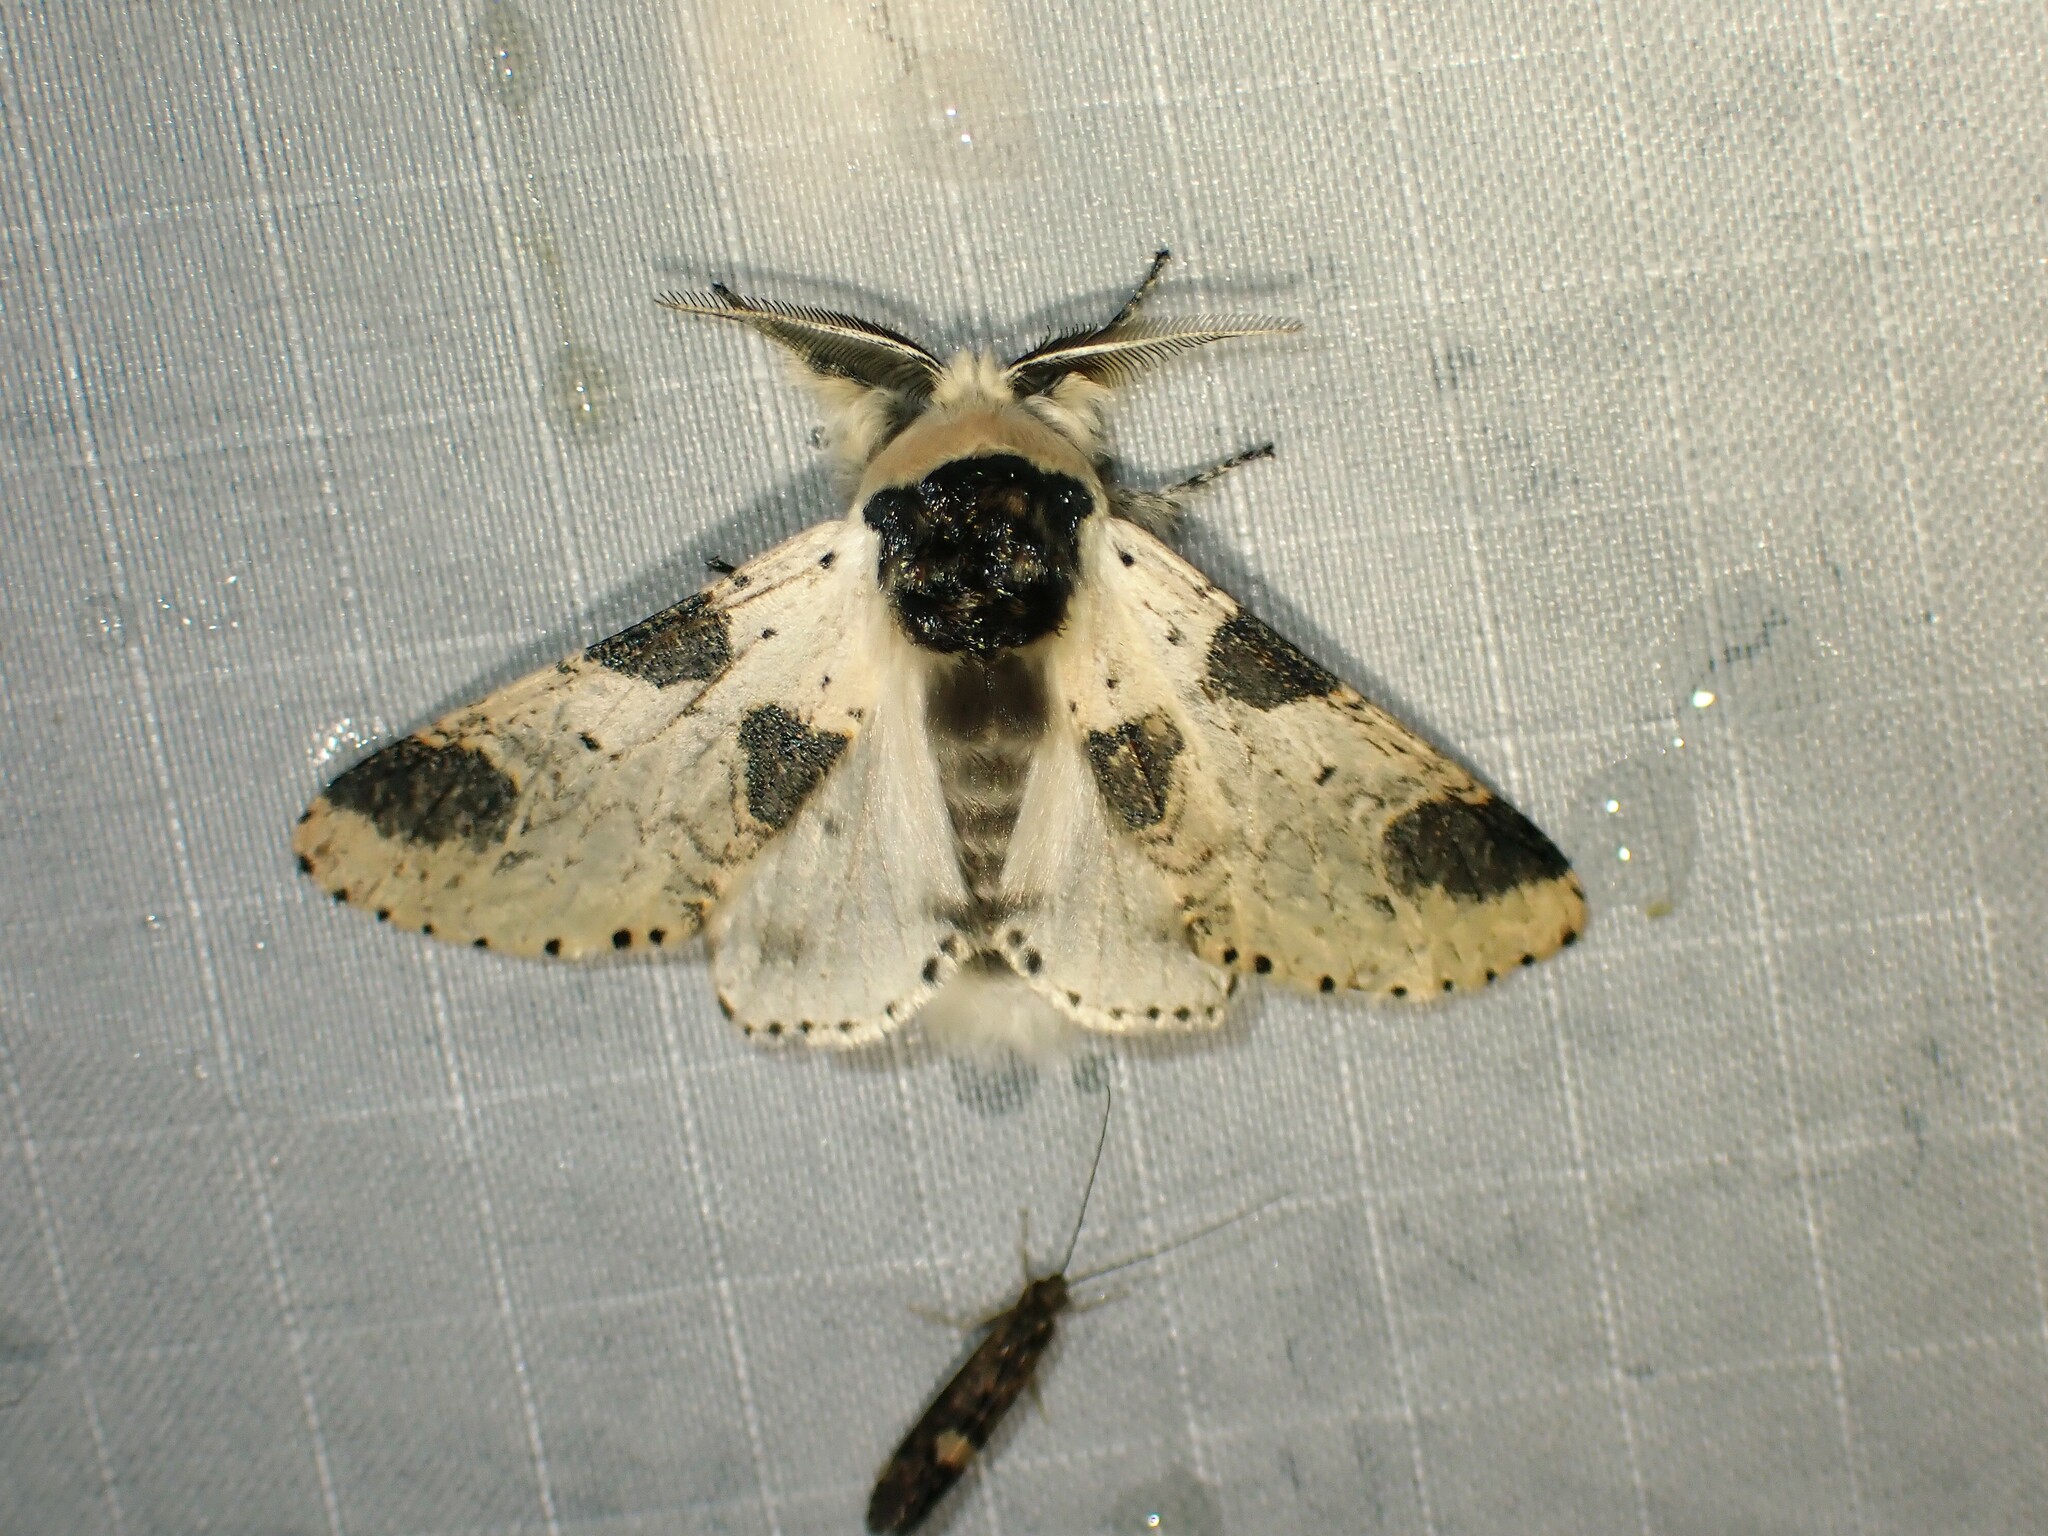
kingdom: Animalia
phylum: Arthropoda
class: Insecta
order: Lepidoptera
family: Notodontidae
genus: Furcula
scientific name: Furcula modesta
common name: Modest furcula moth
